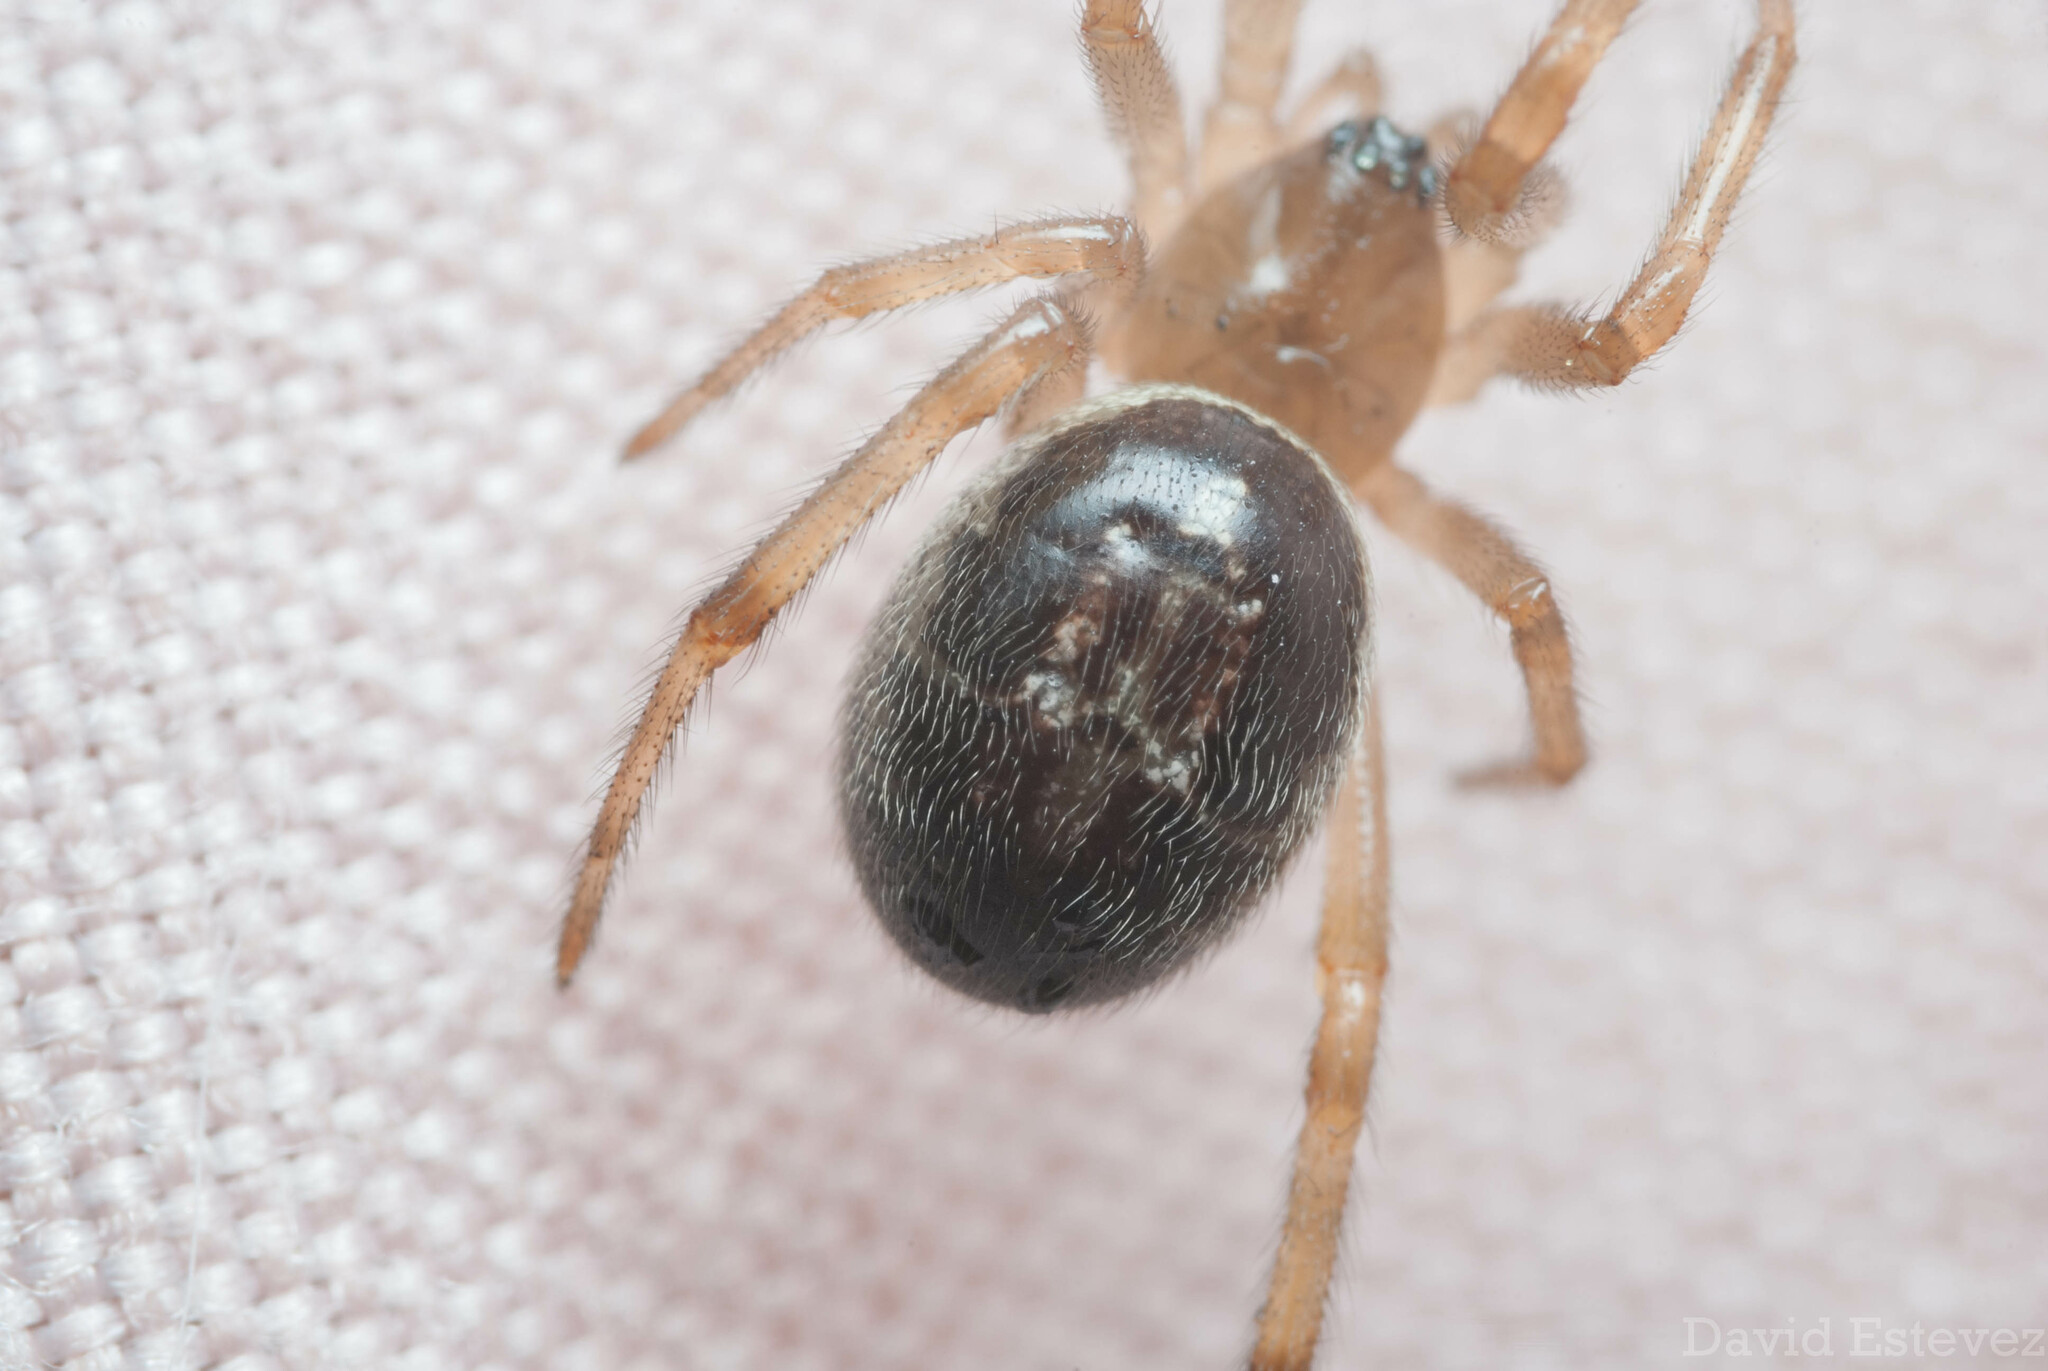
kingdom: Animalia
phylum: Arthropoda
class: Arachnida
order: Araneae
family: Theridiidae
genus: Steatoda
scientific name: Steatoda nobilis
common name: Cobweb weaver
